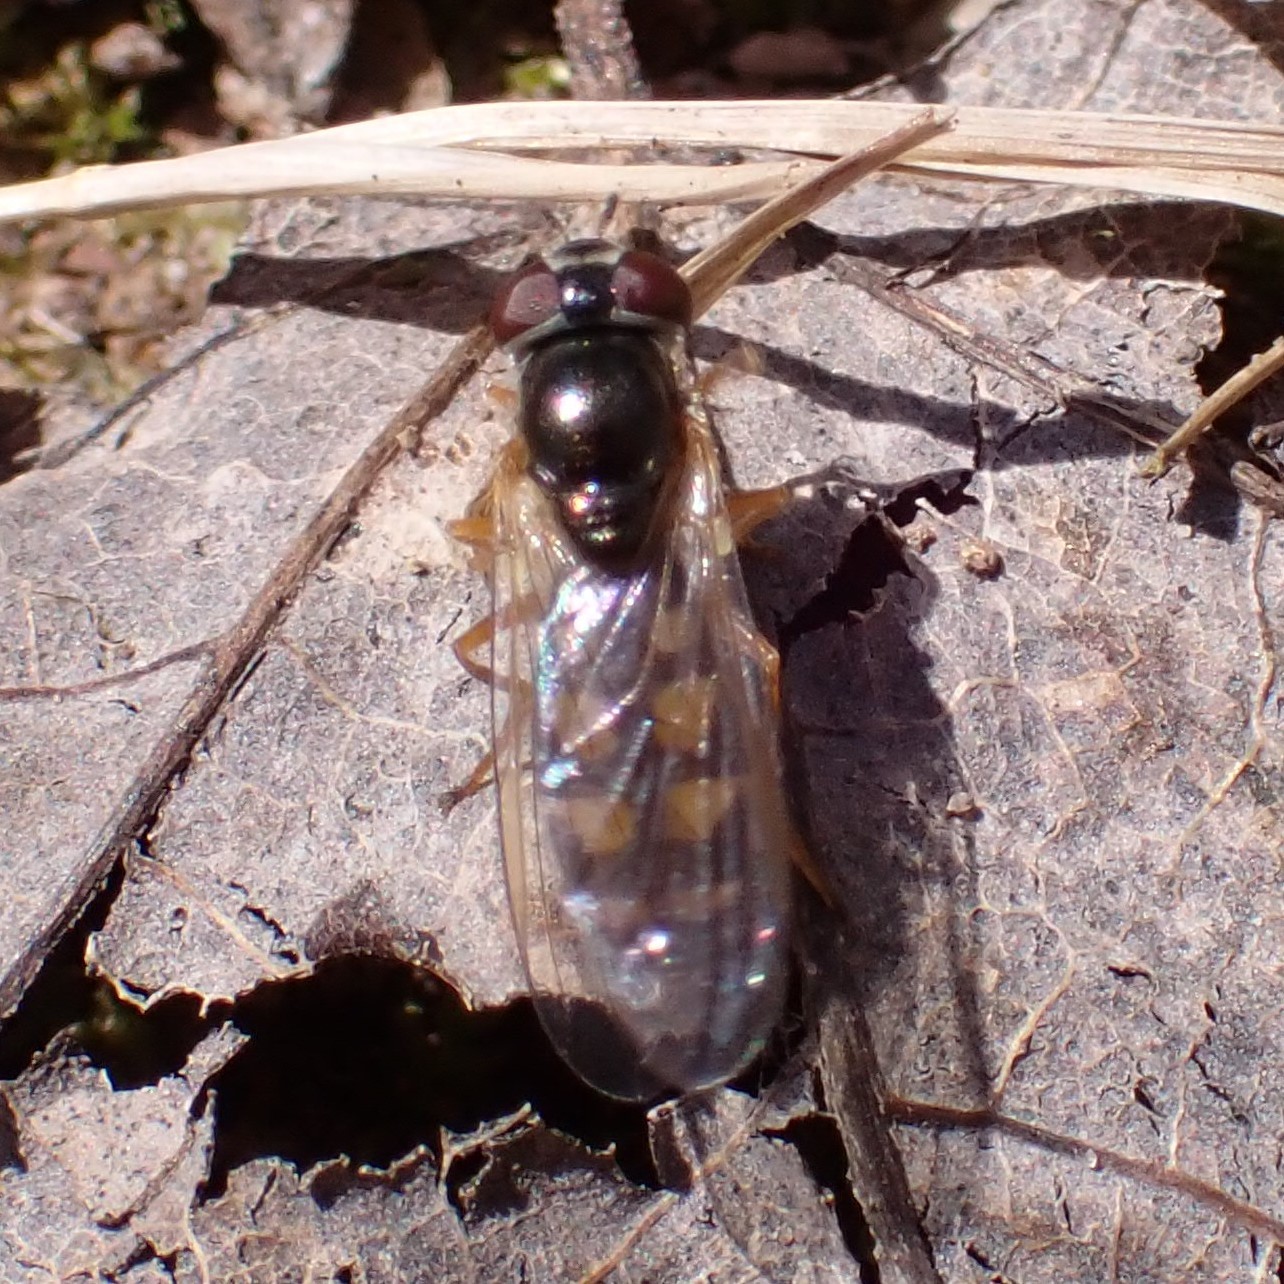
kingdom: Animalia
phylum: Arthropoda
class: Insecta
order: Diptera
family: Syrphidae
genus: Melanostoma
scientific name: Melanostoma mellina
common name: Hover fly
